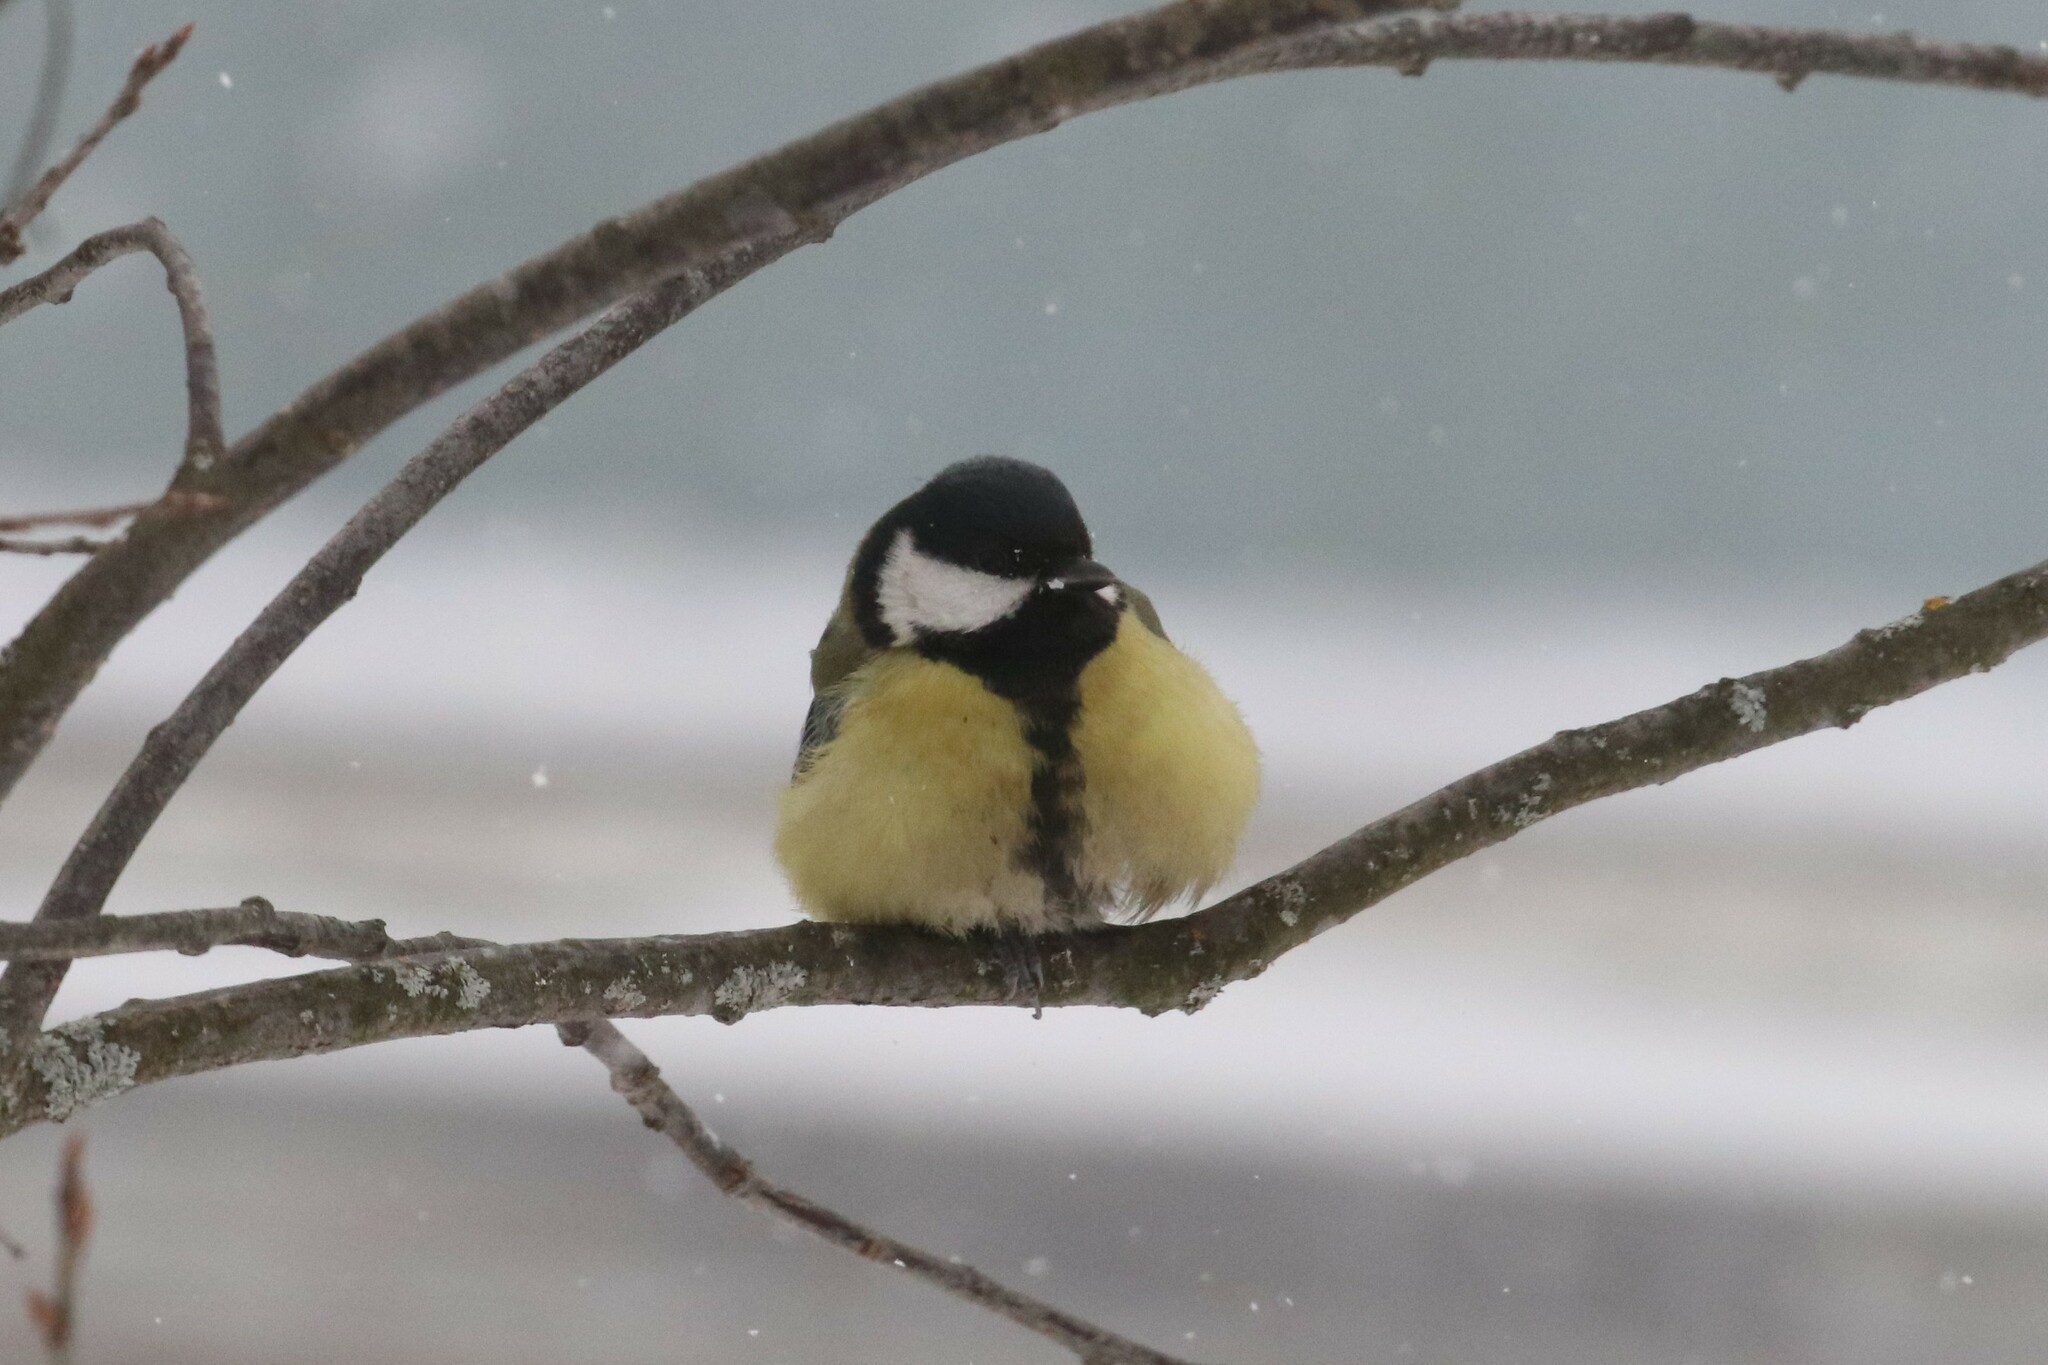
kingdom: Animalia
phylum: Chordata
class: Aves
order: Passeriformes
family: Paridae
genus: Parus
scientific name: Parus major
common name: Great tit
